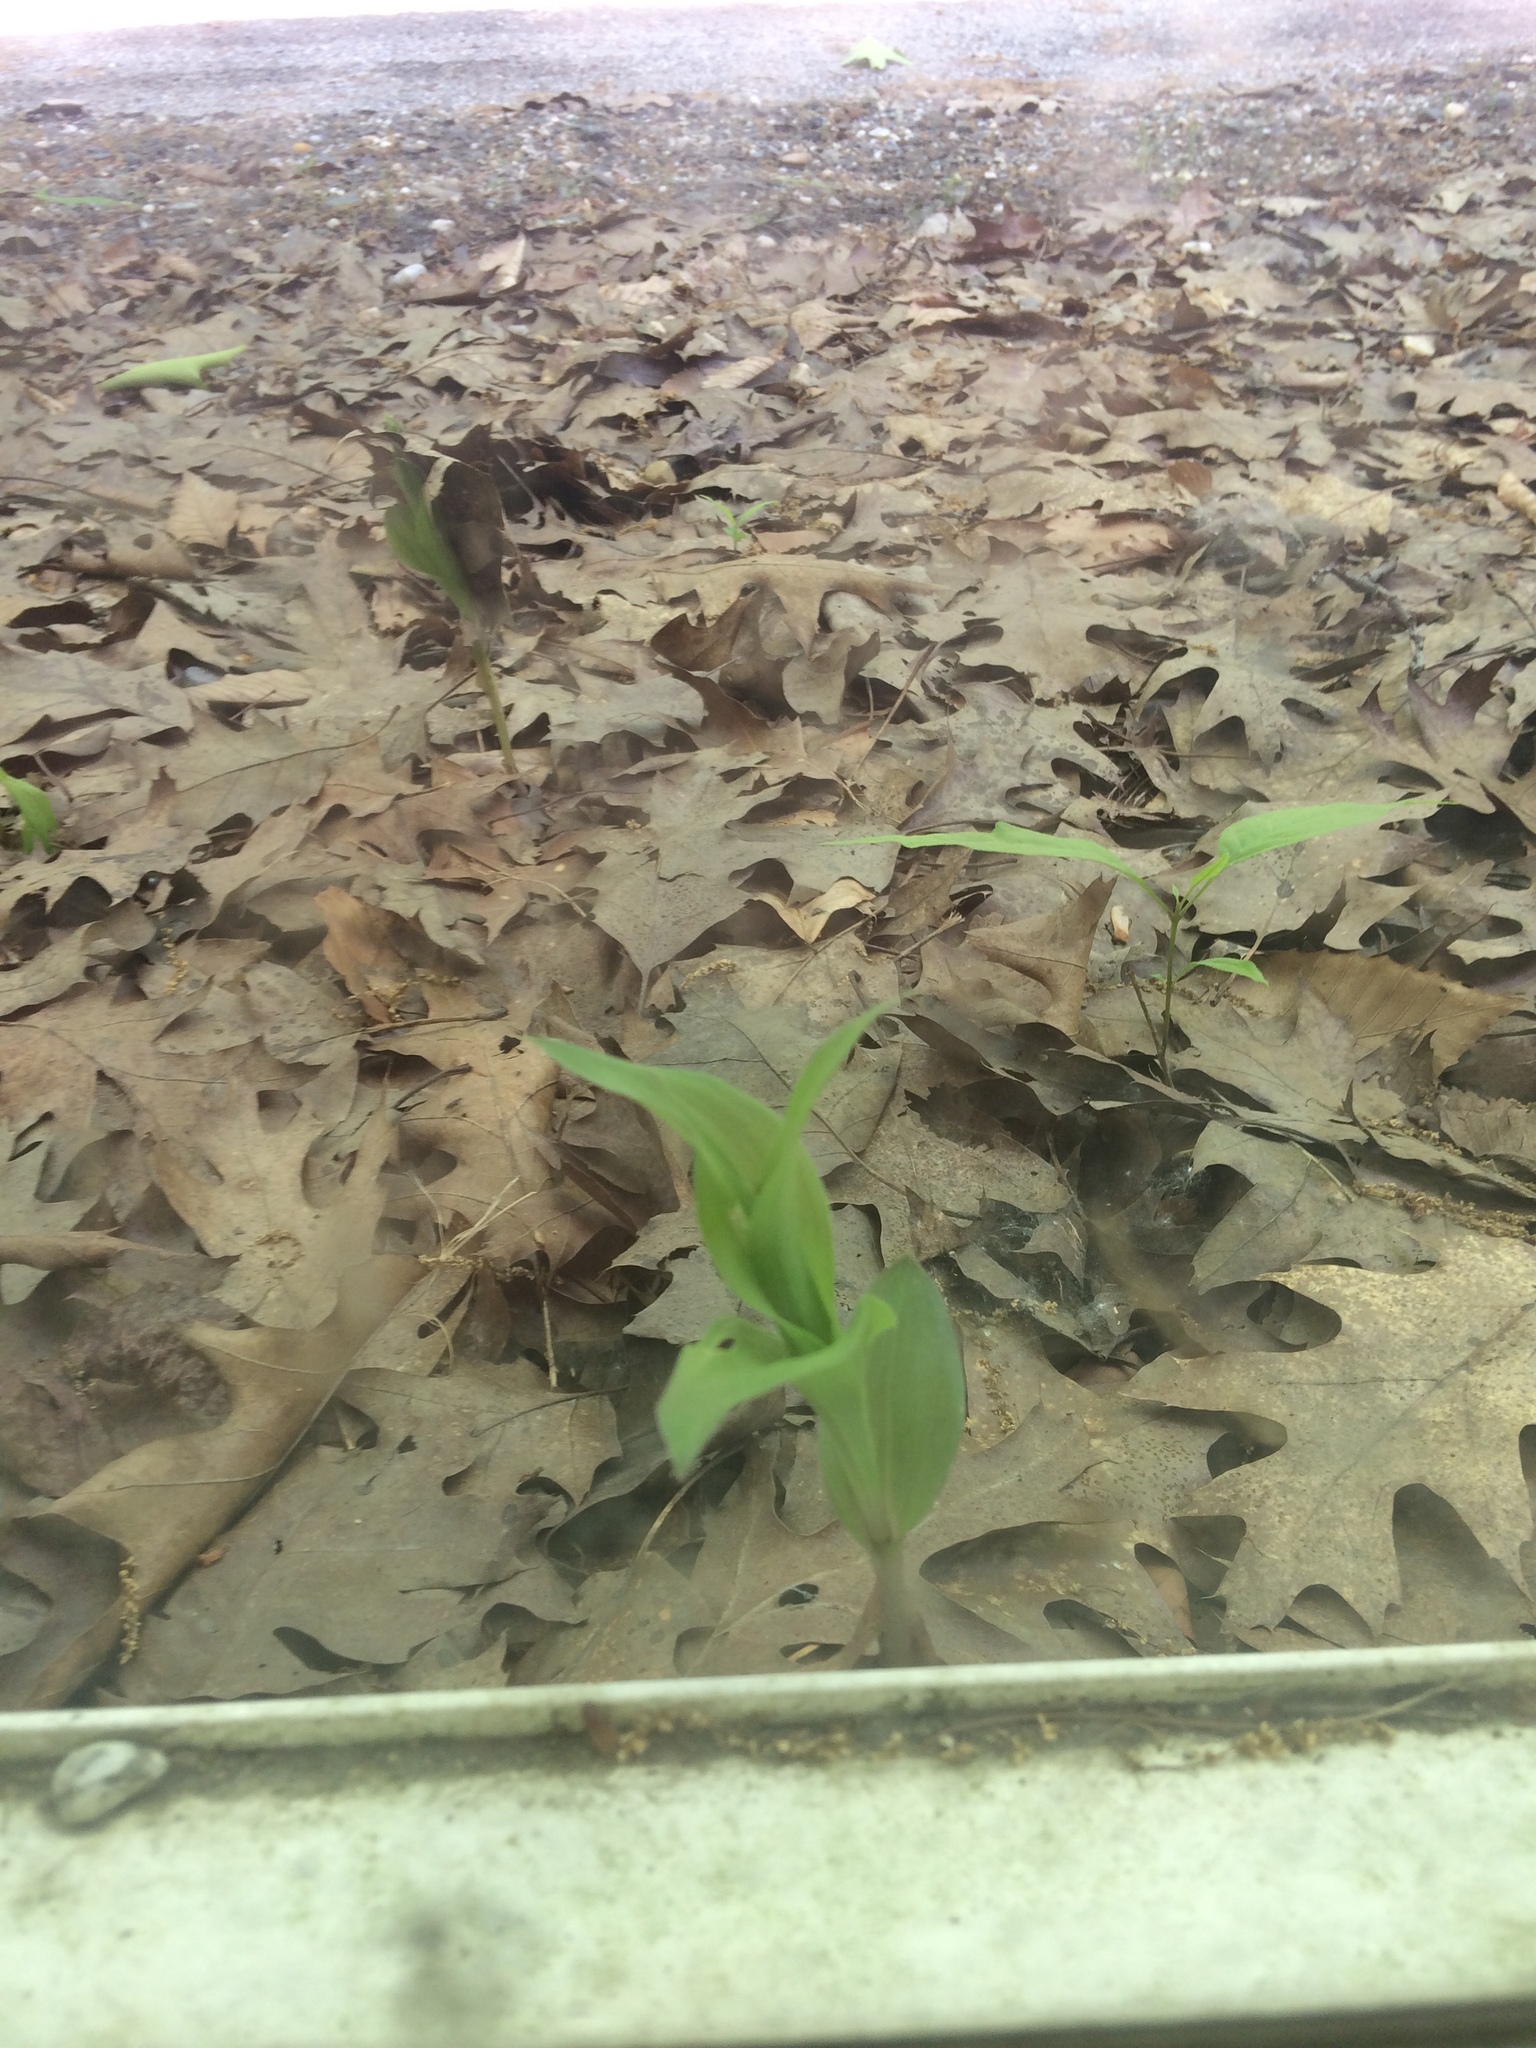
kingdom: Plantae
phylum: Tracheophyta
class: Liliopsida
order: Asparagales
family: Orchidaceae
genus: Epipactis
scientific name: Epipactis helleborine
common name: Broad-leaved helleborine
